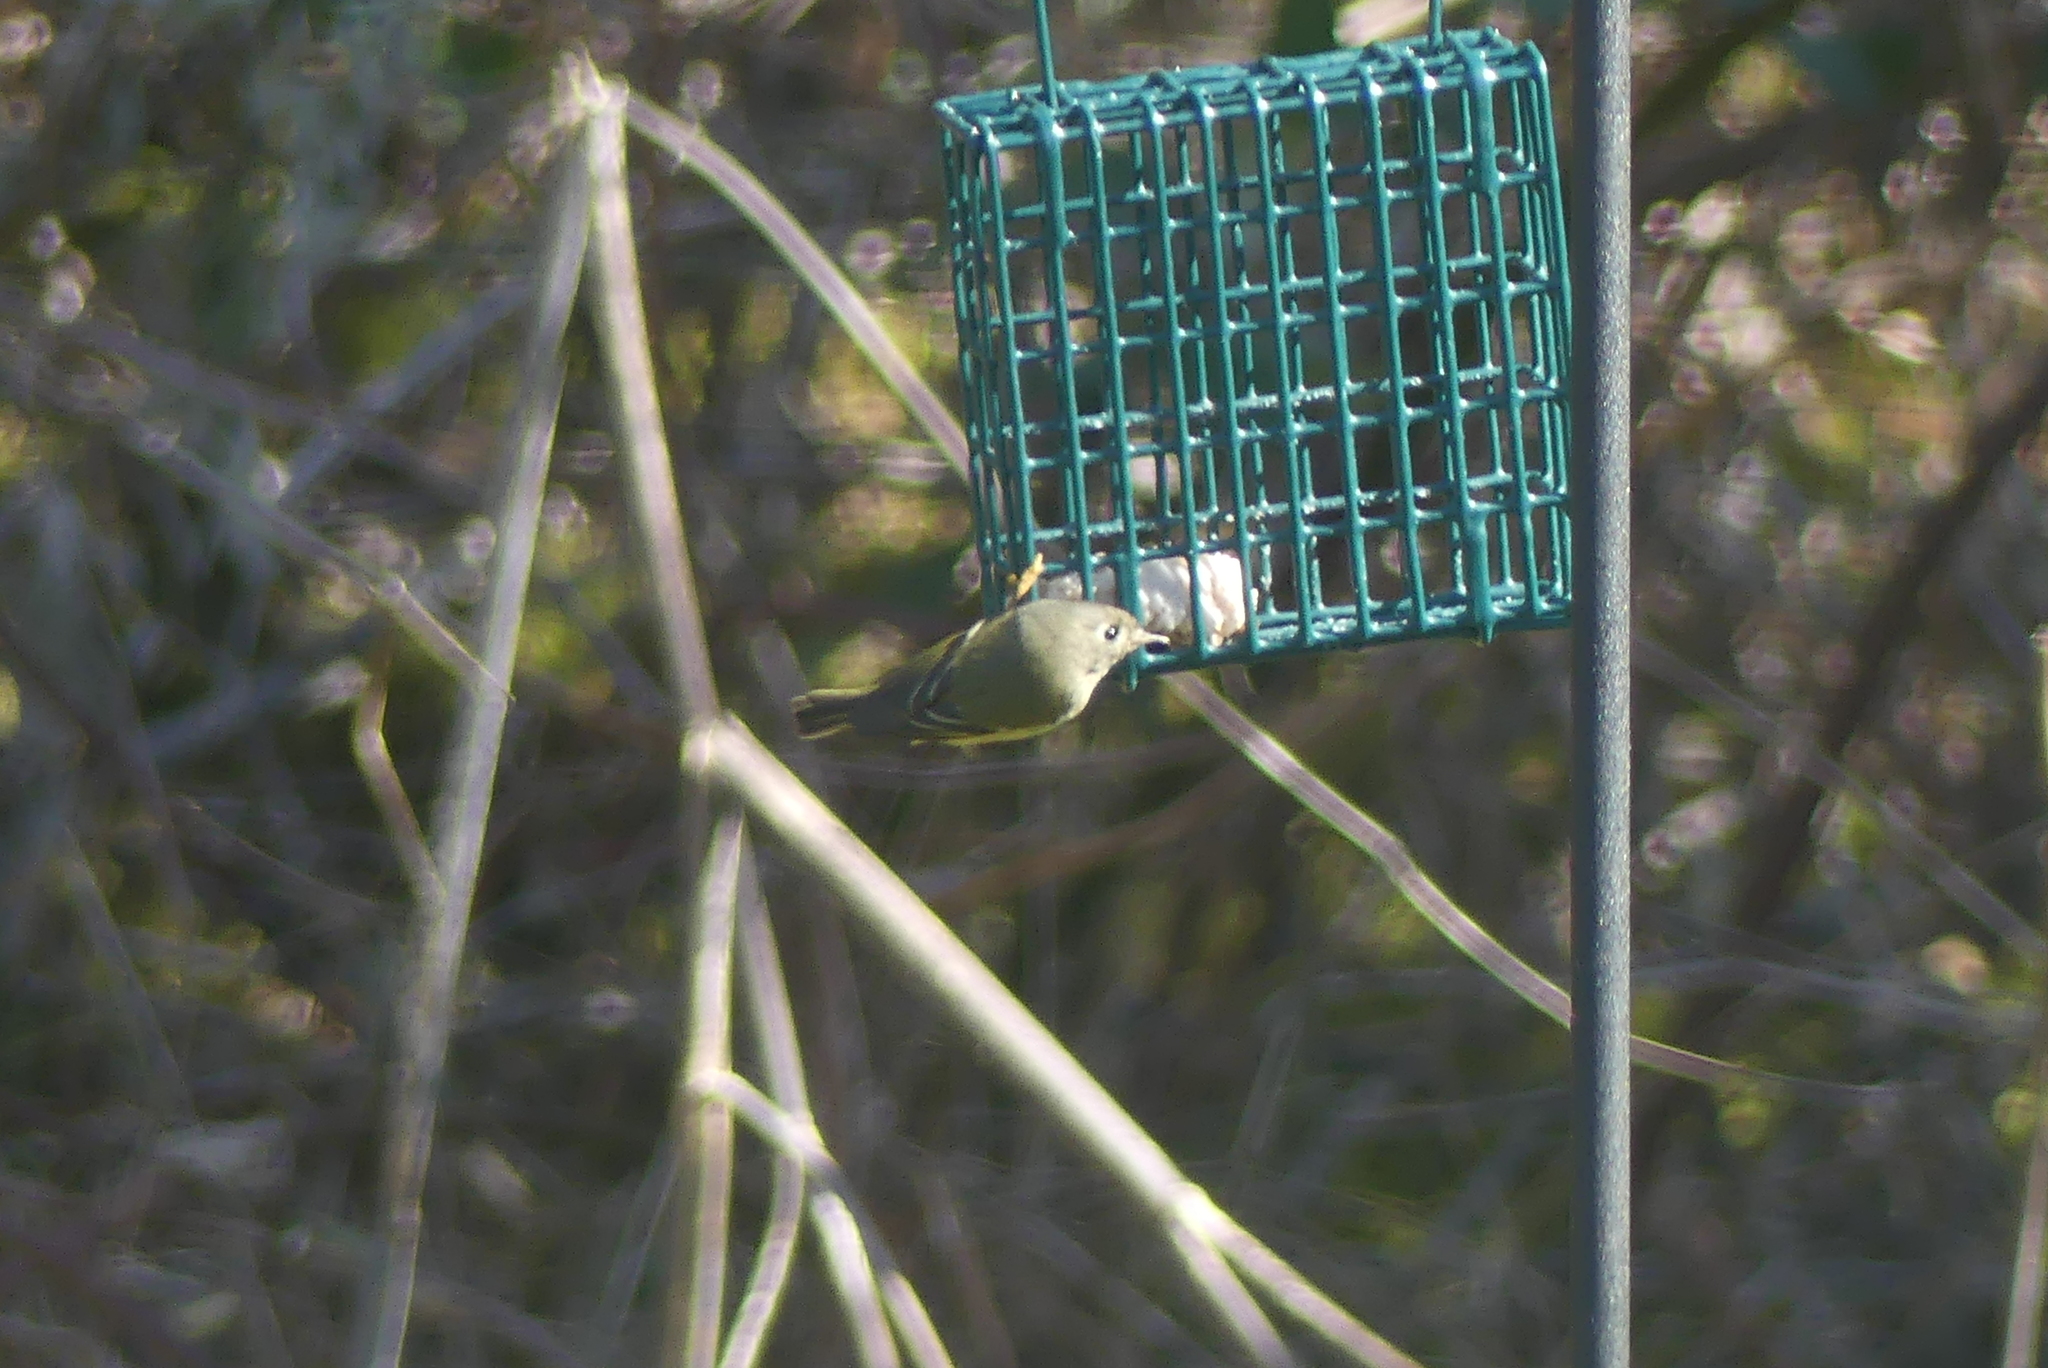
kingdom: Animalia
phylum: Chordata
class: Aves
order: Passeriformes
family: Regulidae
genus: Regulus
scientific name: Regulus calendula
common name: Ruby-crowned kinglet
